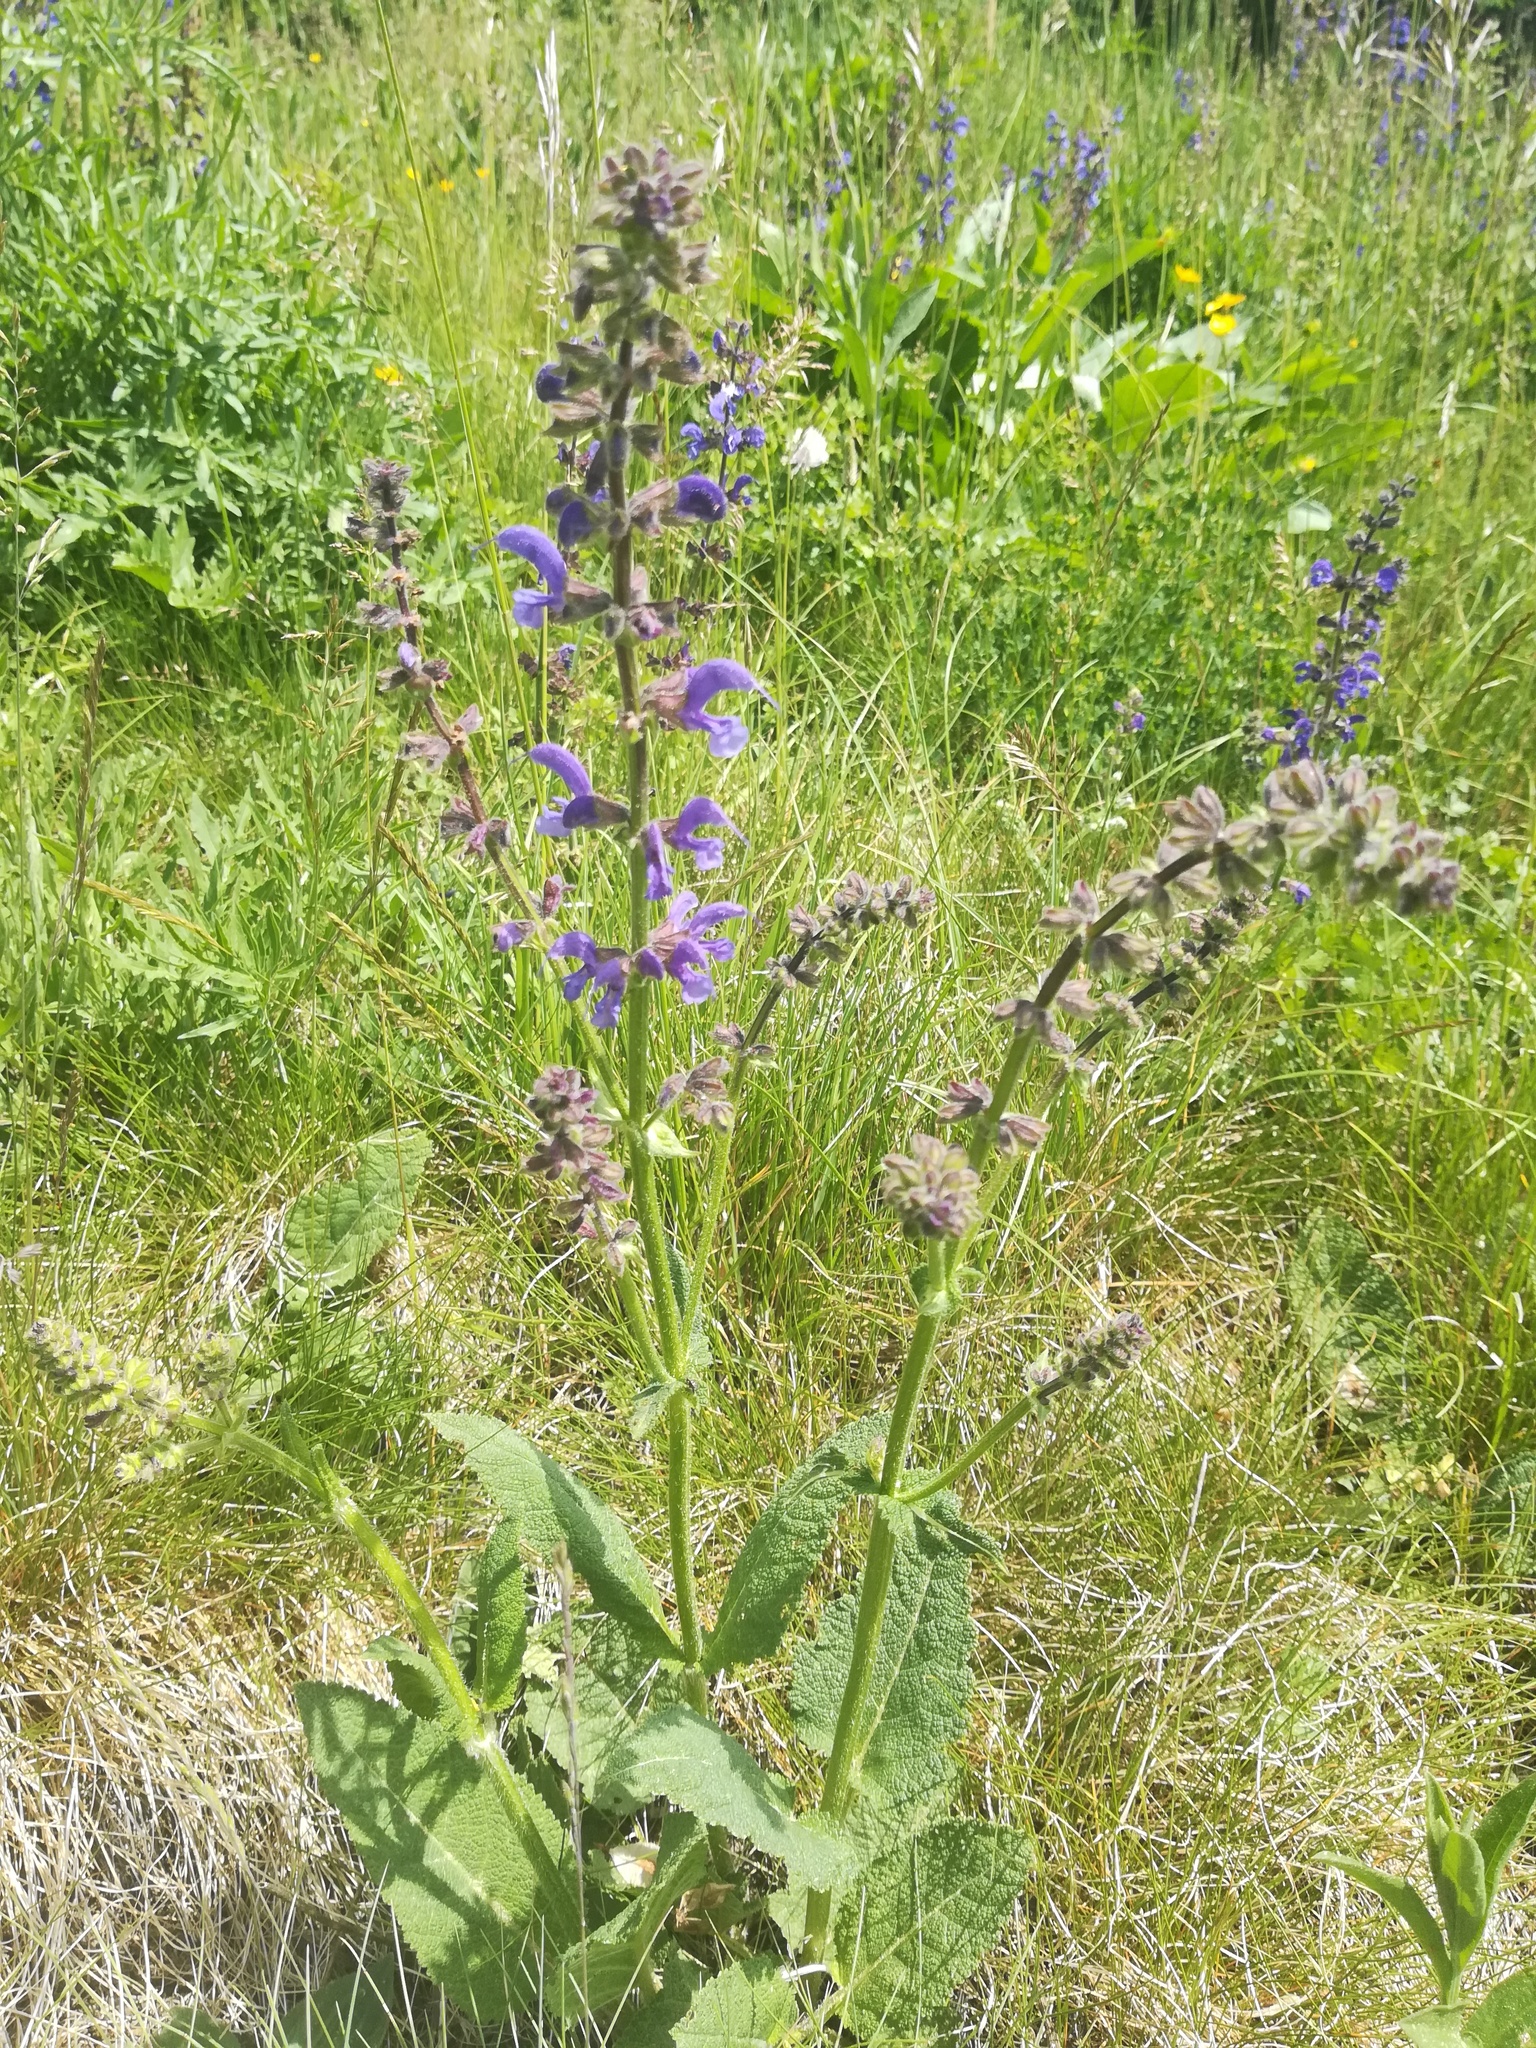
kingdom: Plantae
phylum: Tracheophyta
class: Magnoliopsida
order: Lamiales
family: Lamiaceae
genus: Salvia
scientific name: Salvia pratensis
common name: Meadow sage
